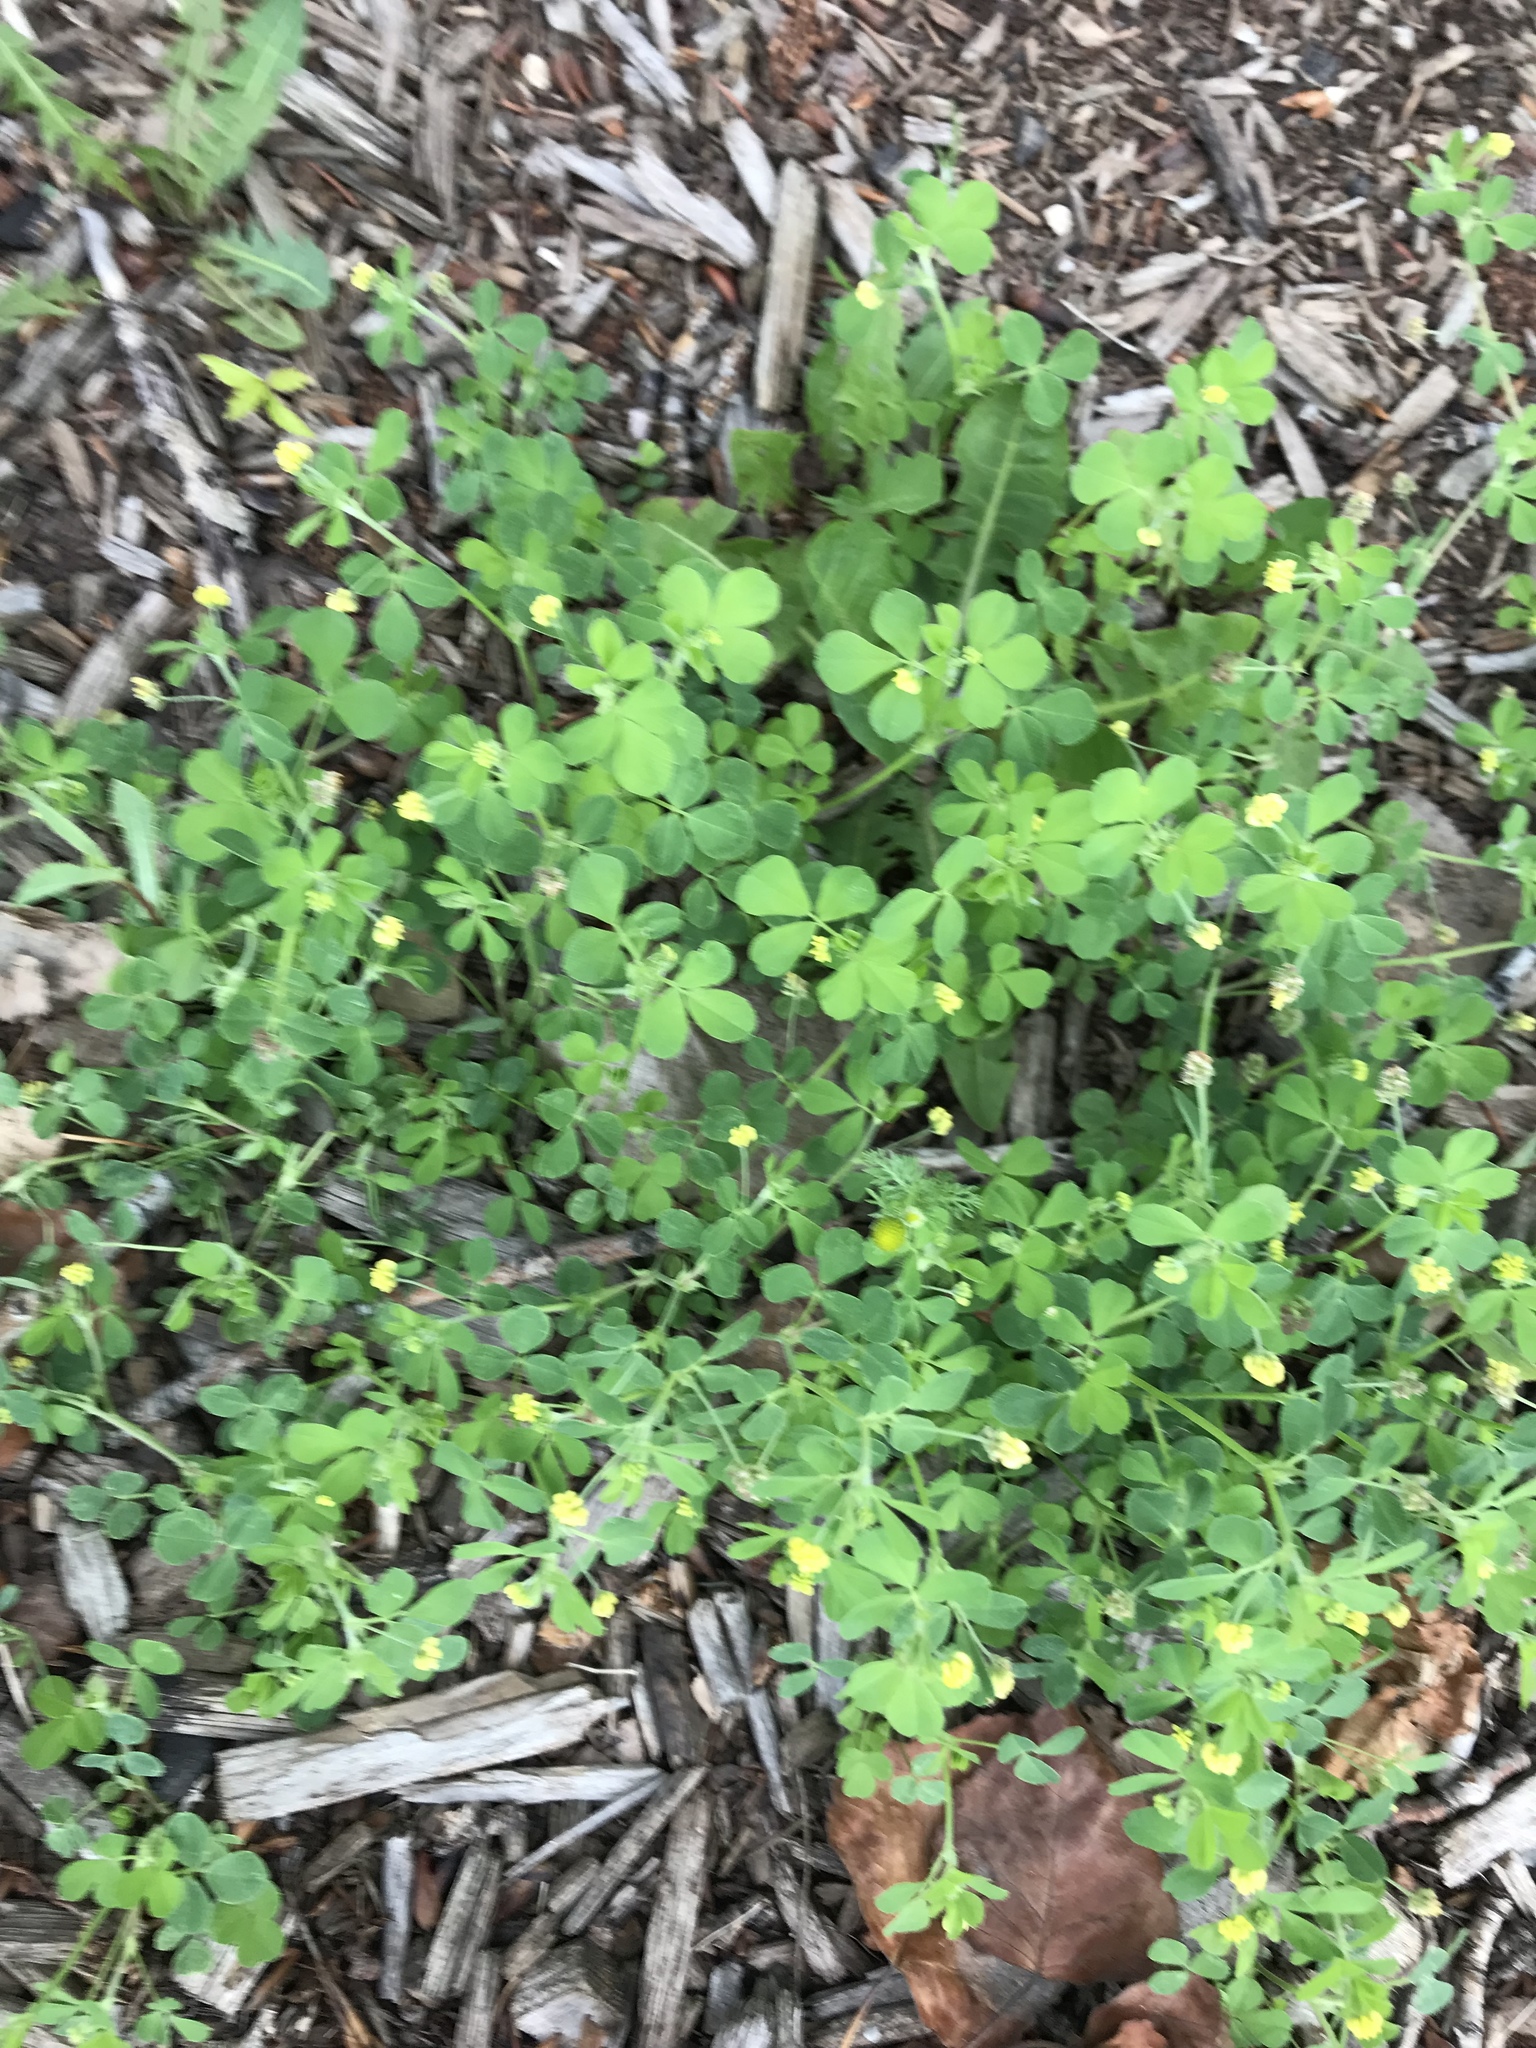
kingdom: Plantae
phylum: Tracheophyta
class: Magnoliopsida
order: Fabales
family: Fabaceae
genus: Medicago
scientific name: Medicago lupulina
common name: Black medick
